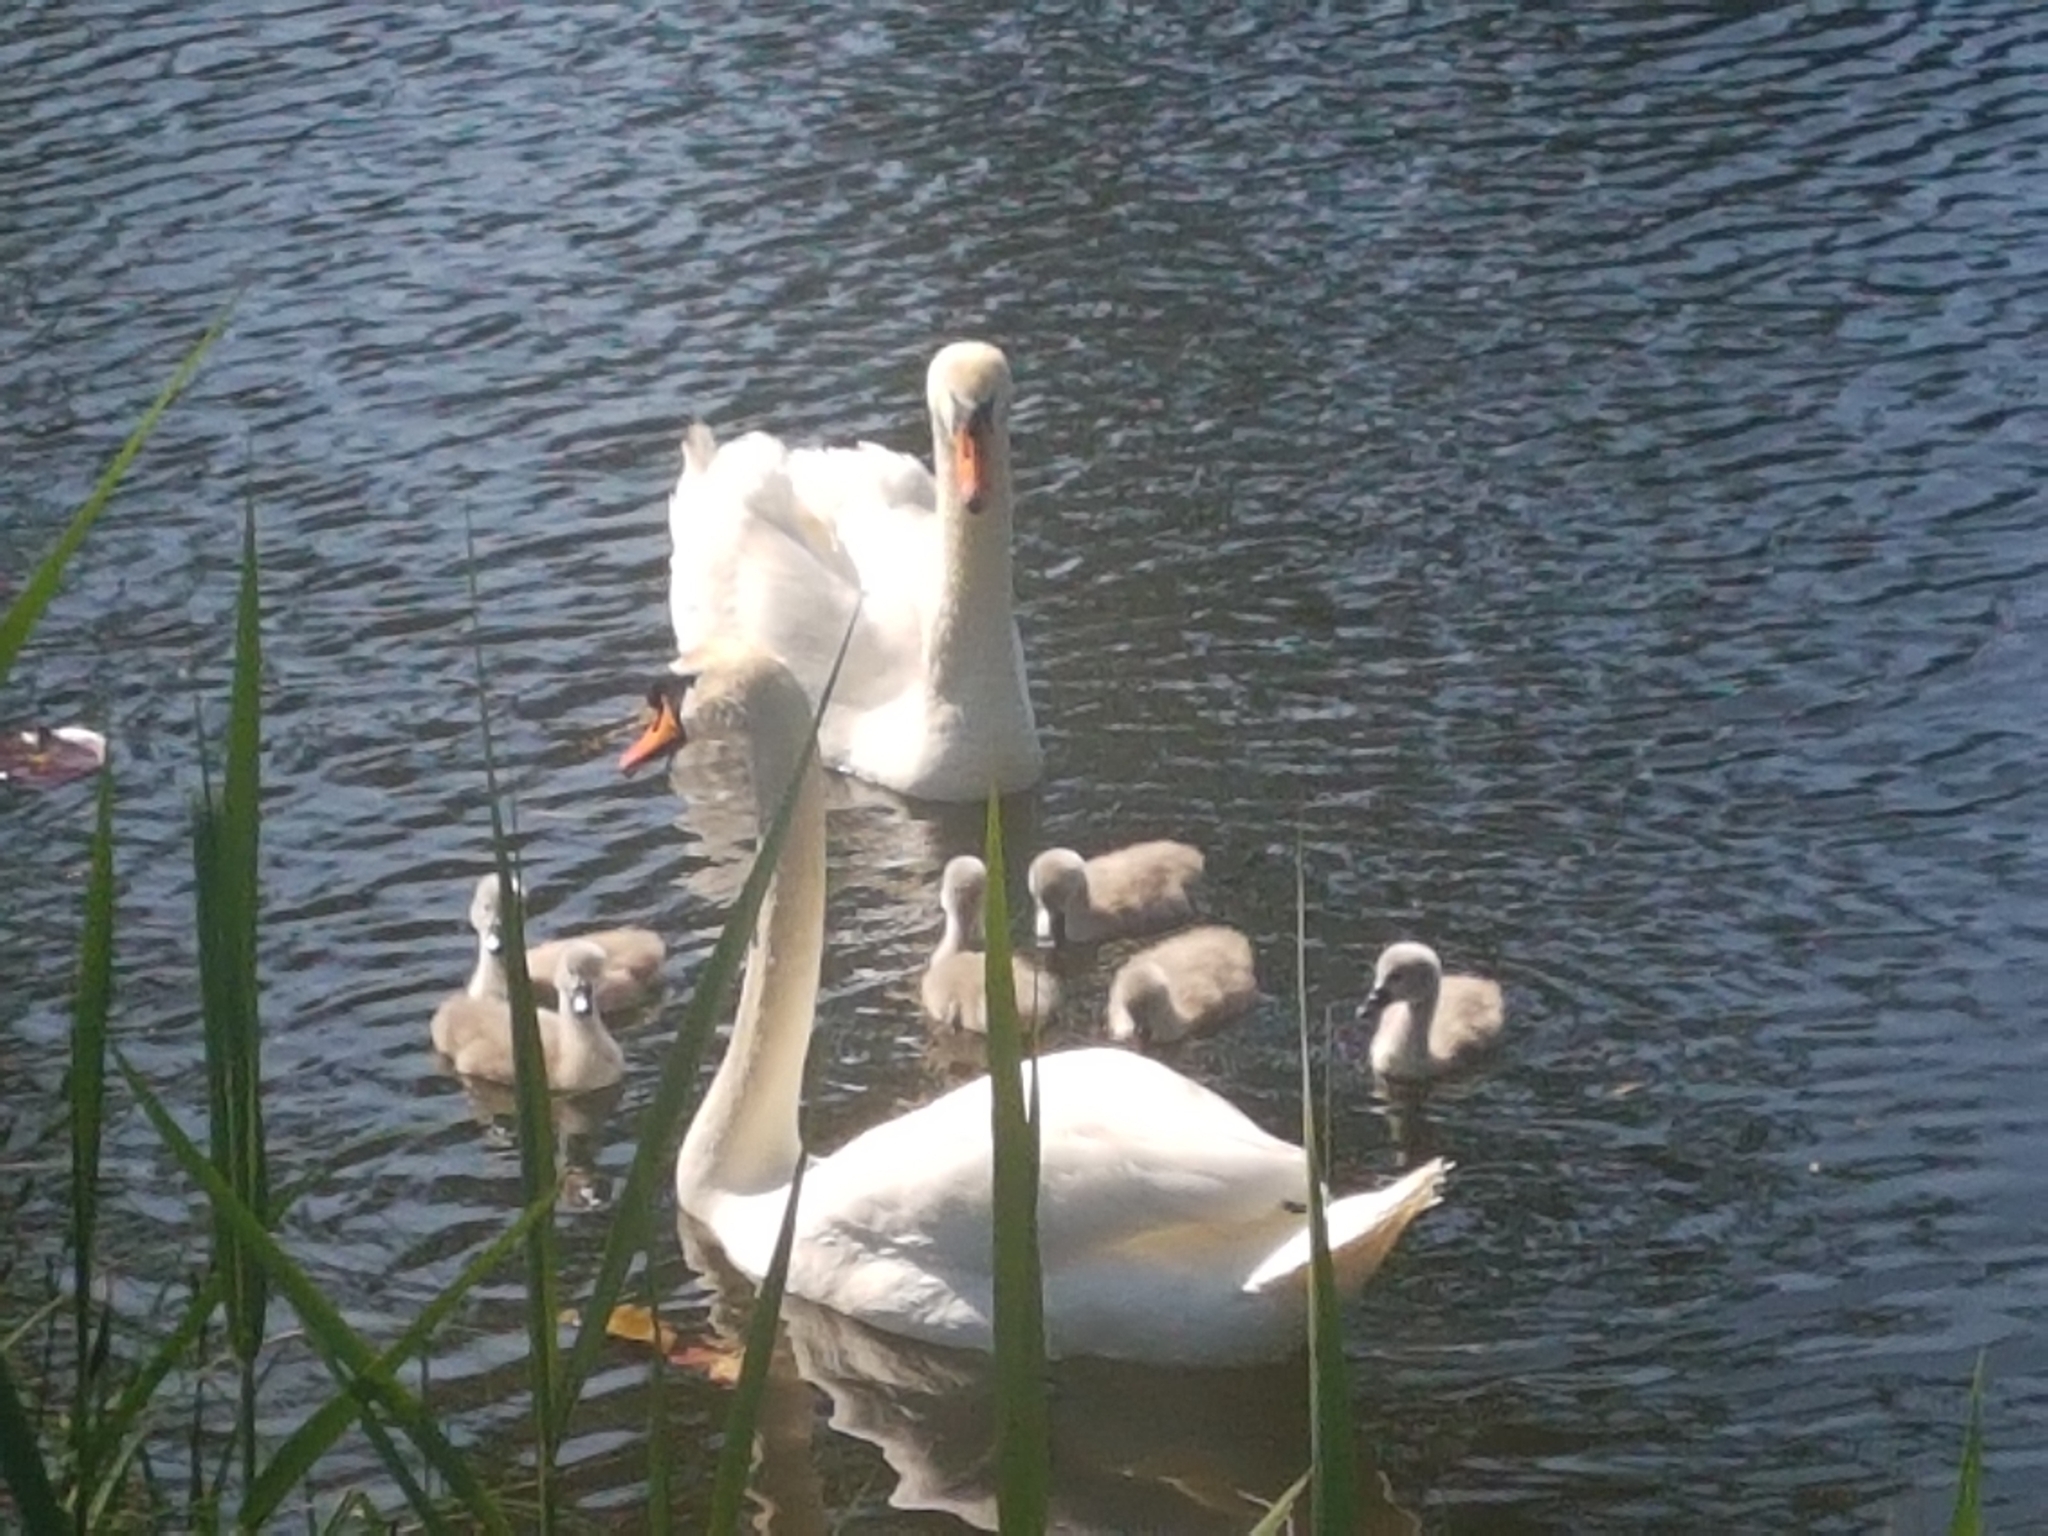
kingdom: Animalia
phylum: Chordata
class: Aves
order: Anseriformes
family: Anatidae
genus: Cygnus
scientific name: Cygnus olor
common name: Mute swan
